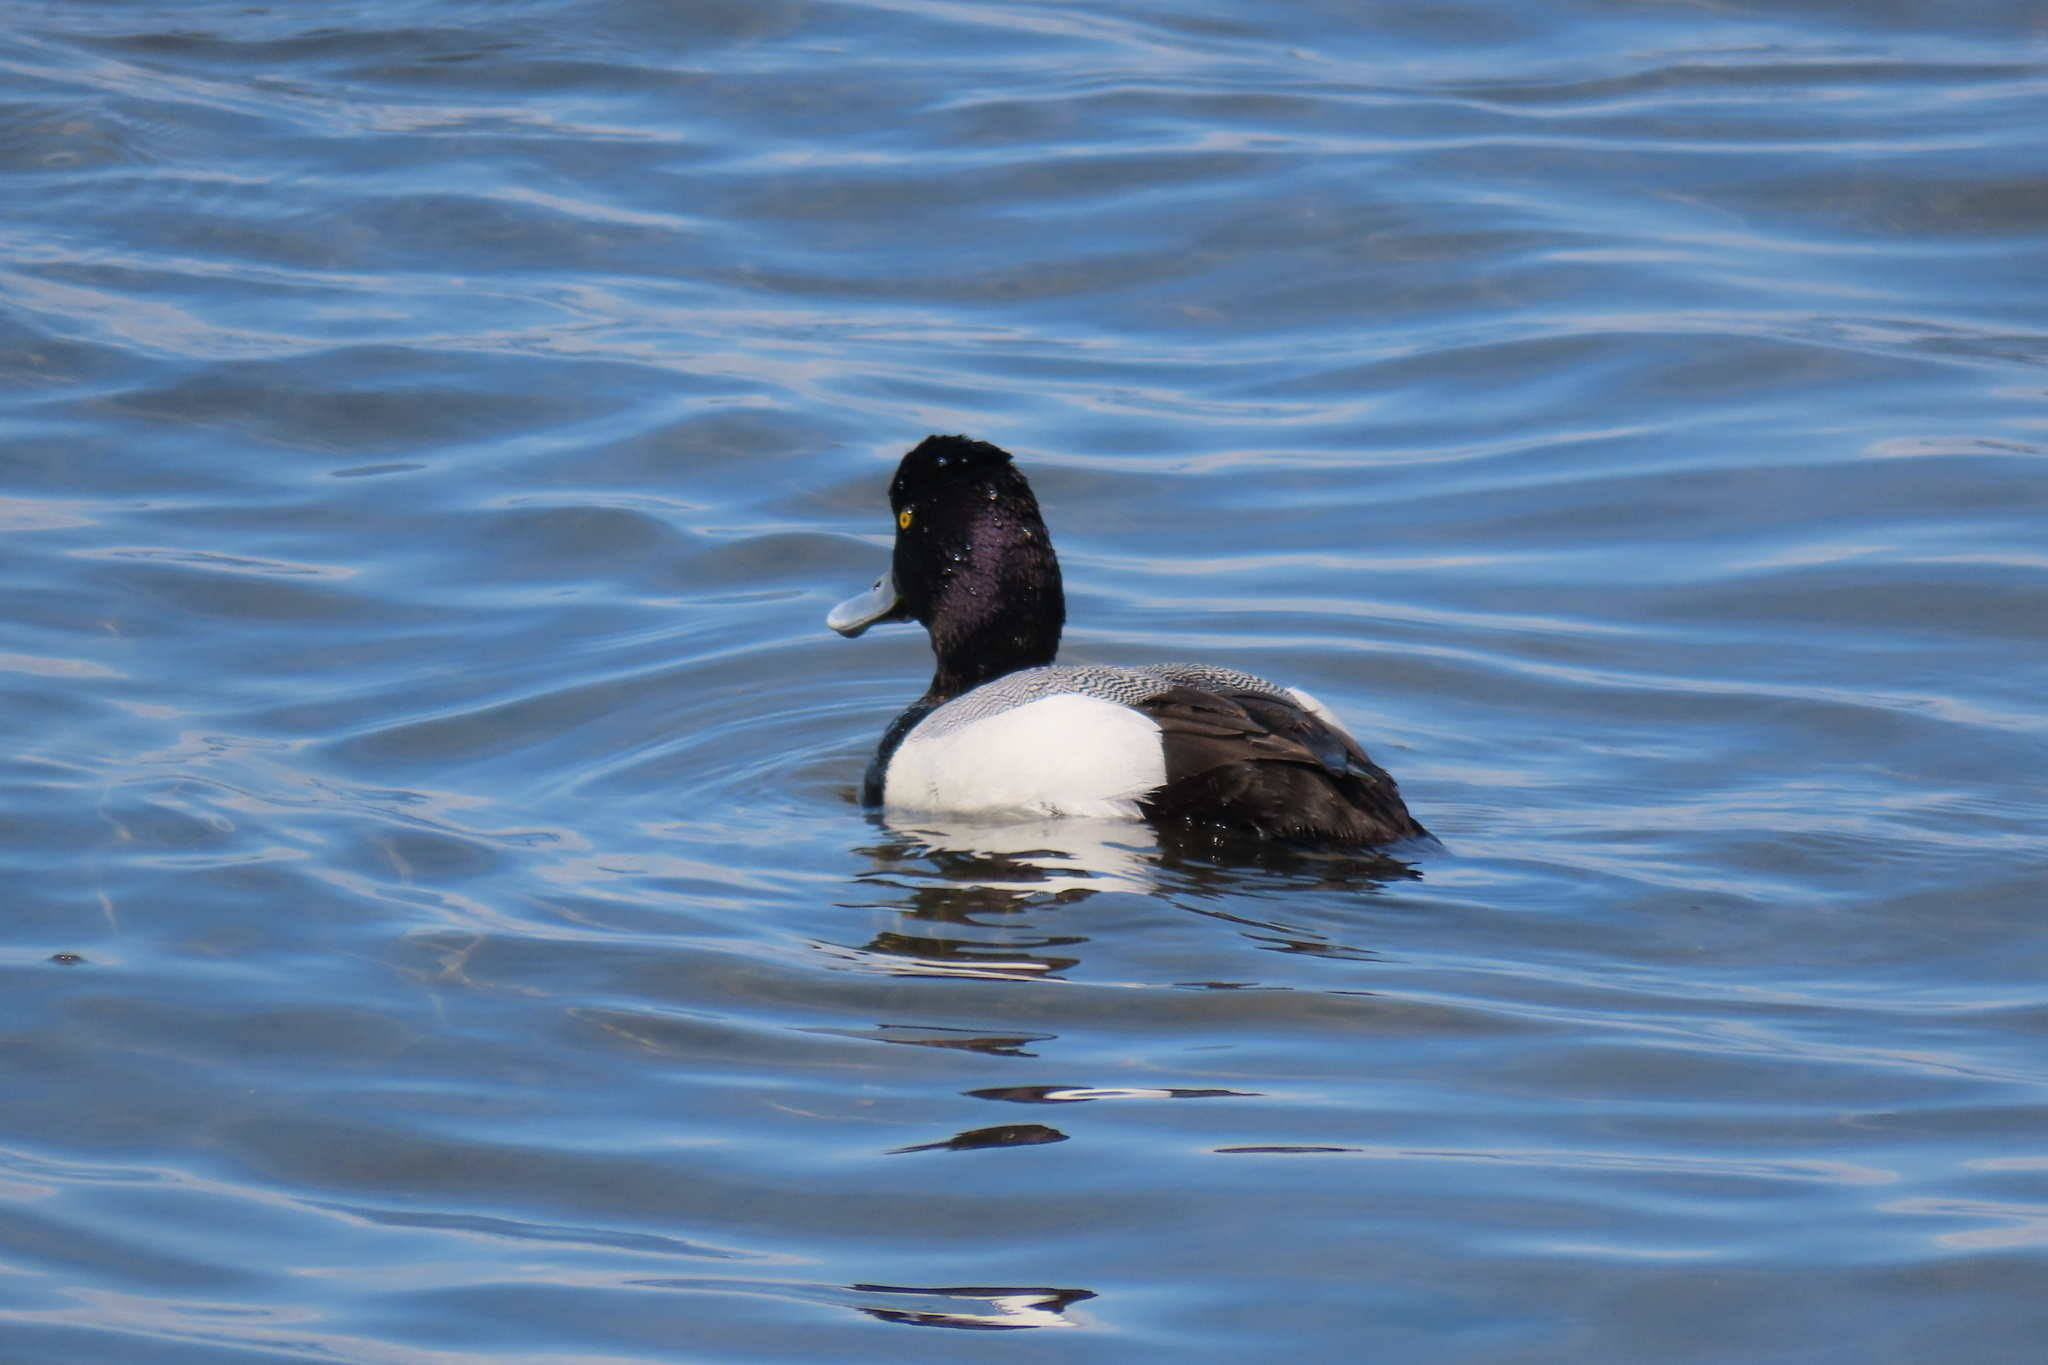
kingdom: Animalia
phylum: Chordata
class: Aves
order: Anseriformes
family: Anatidae
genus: Aythya
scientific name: Aythya affinis
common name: Lesser scaup
